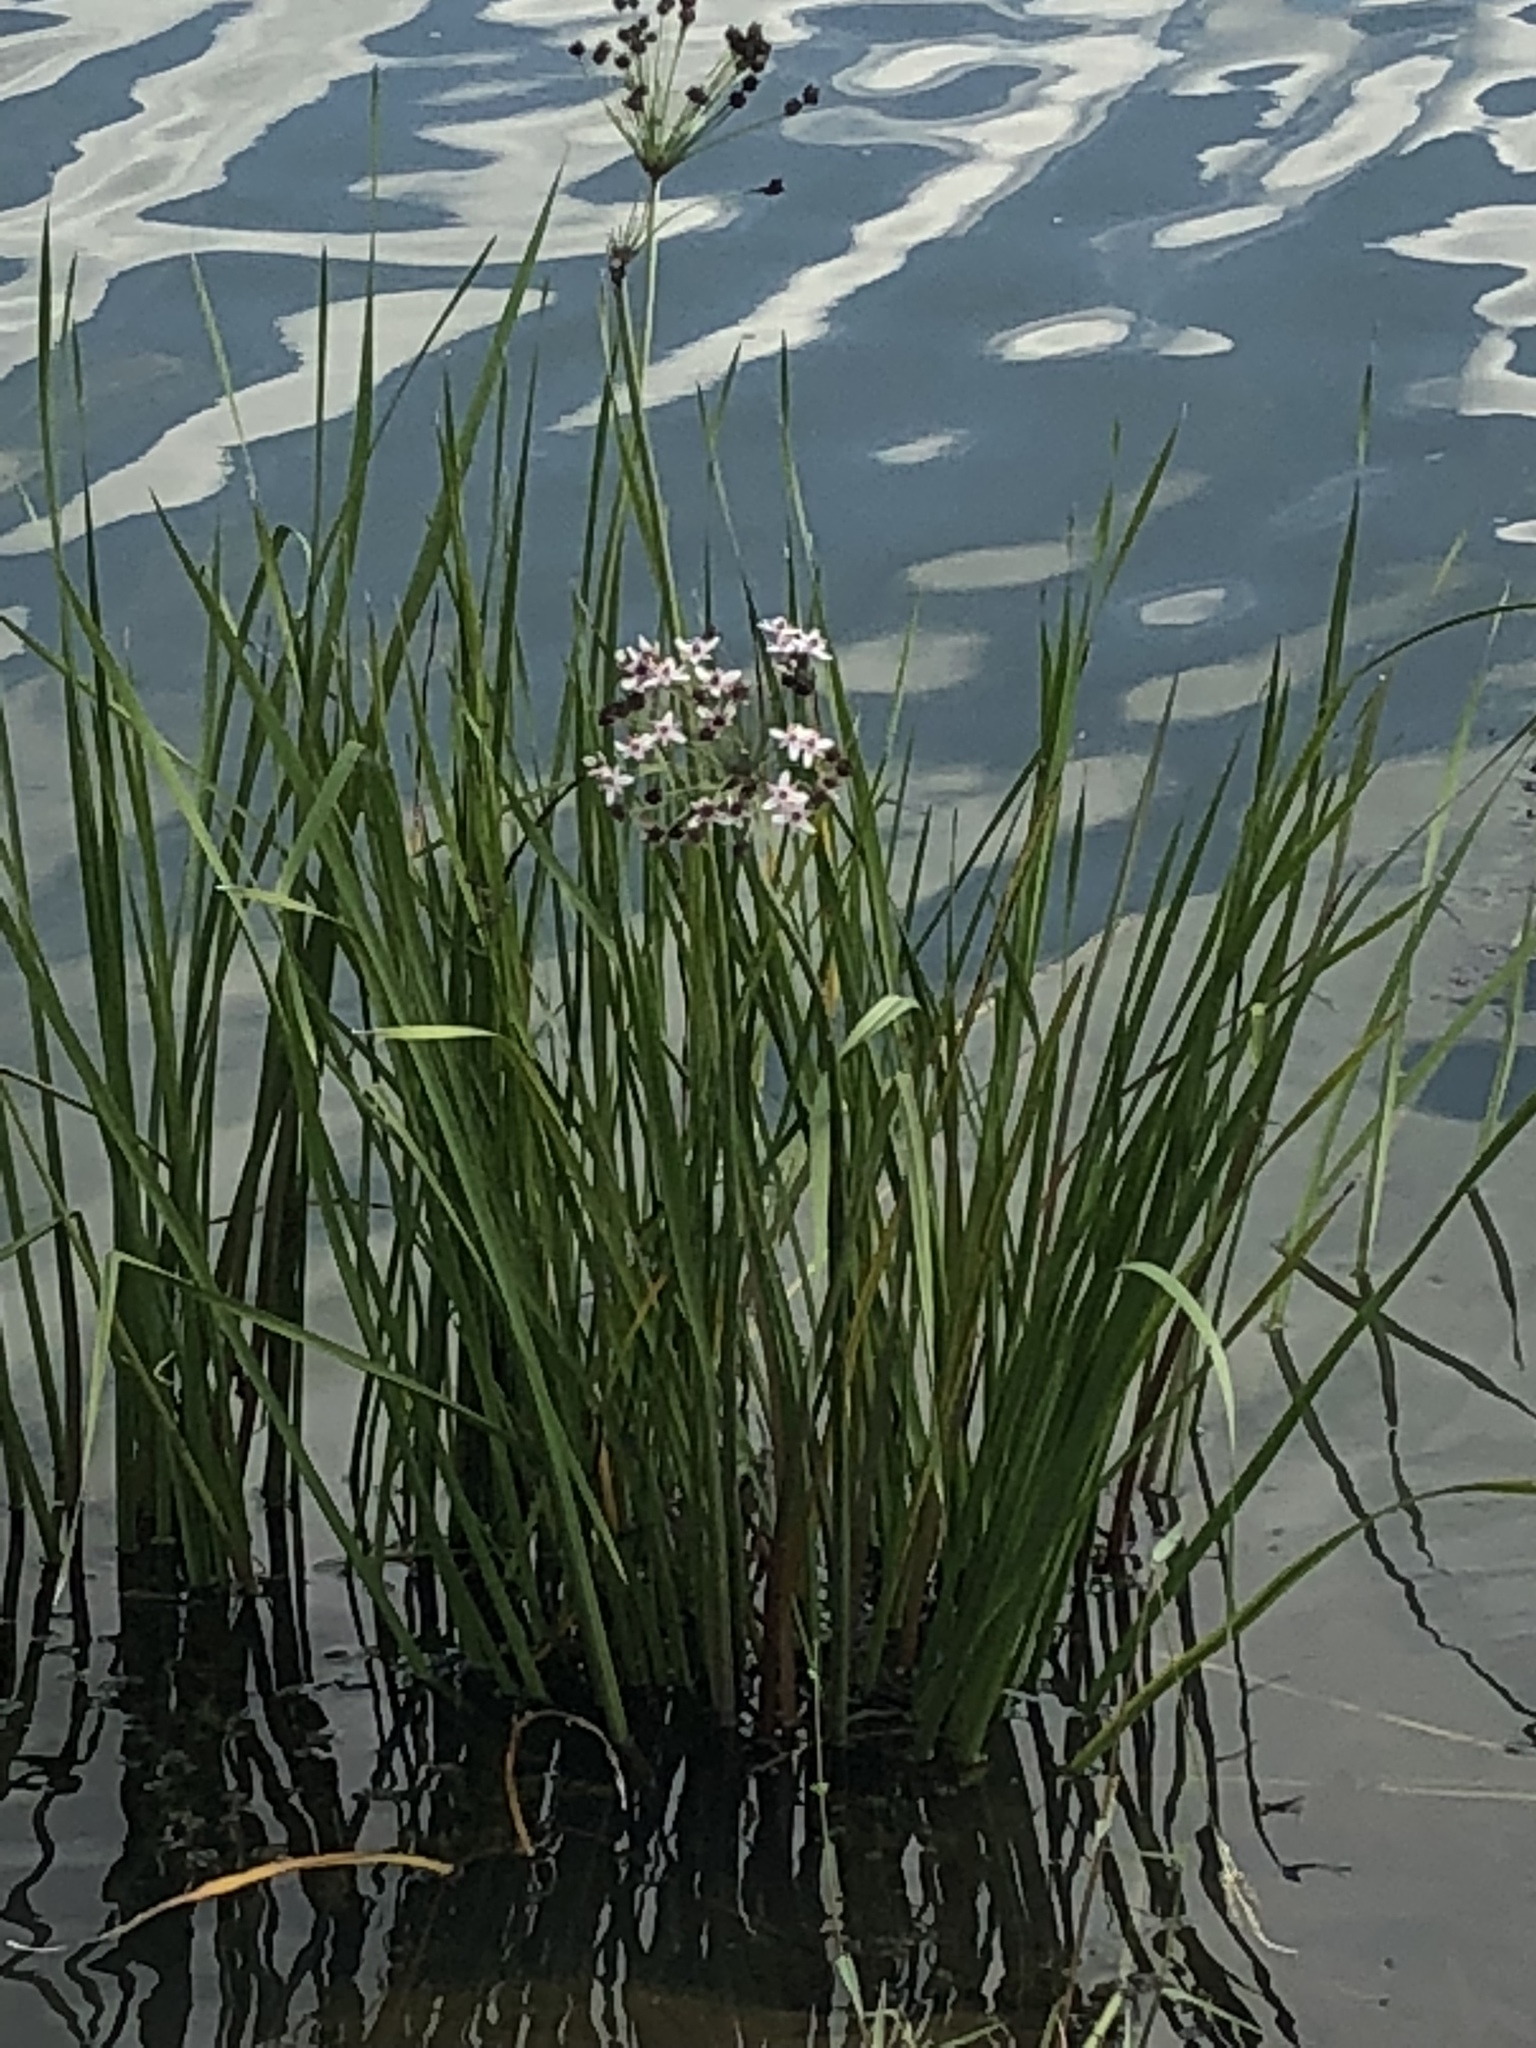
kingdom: Plantae
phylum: Tracheophyta
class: Liliopsida
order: Alismatales
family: Butomaceae
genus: Butomus
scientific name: Butomus umbellatus
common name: Flowering-rush
